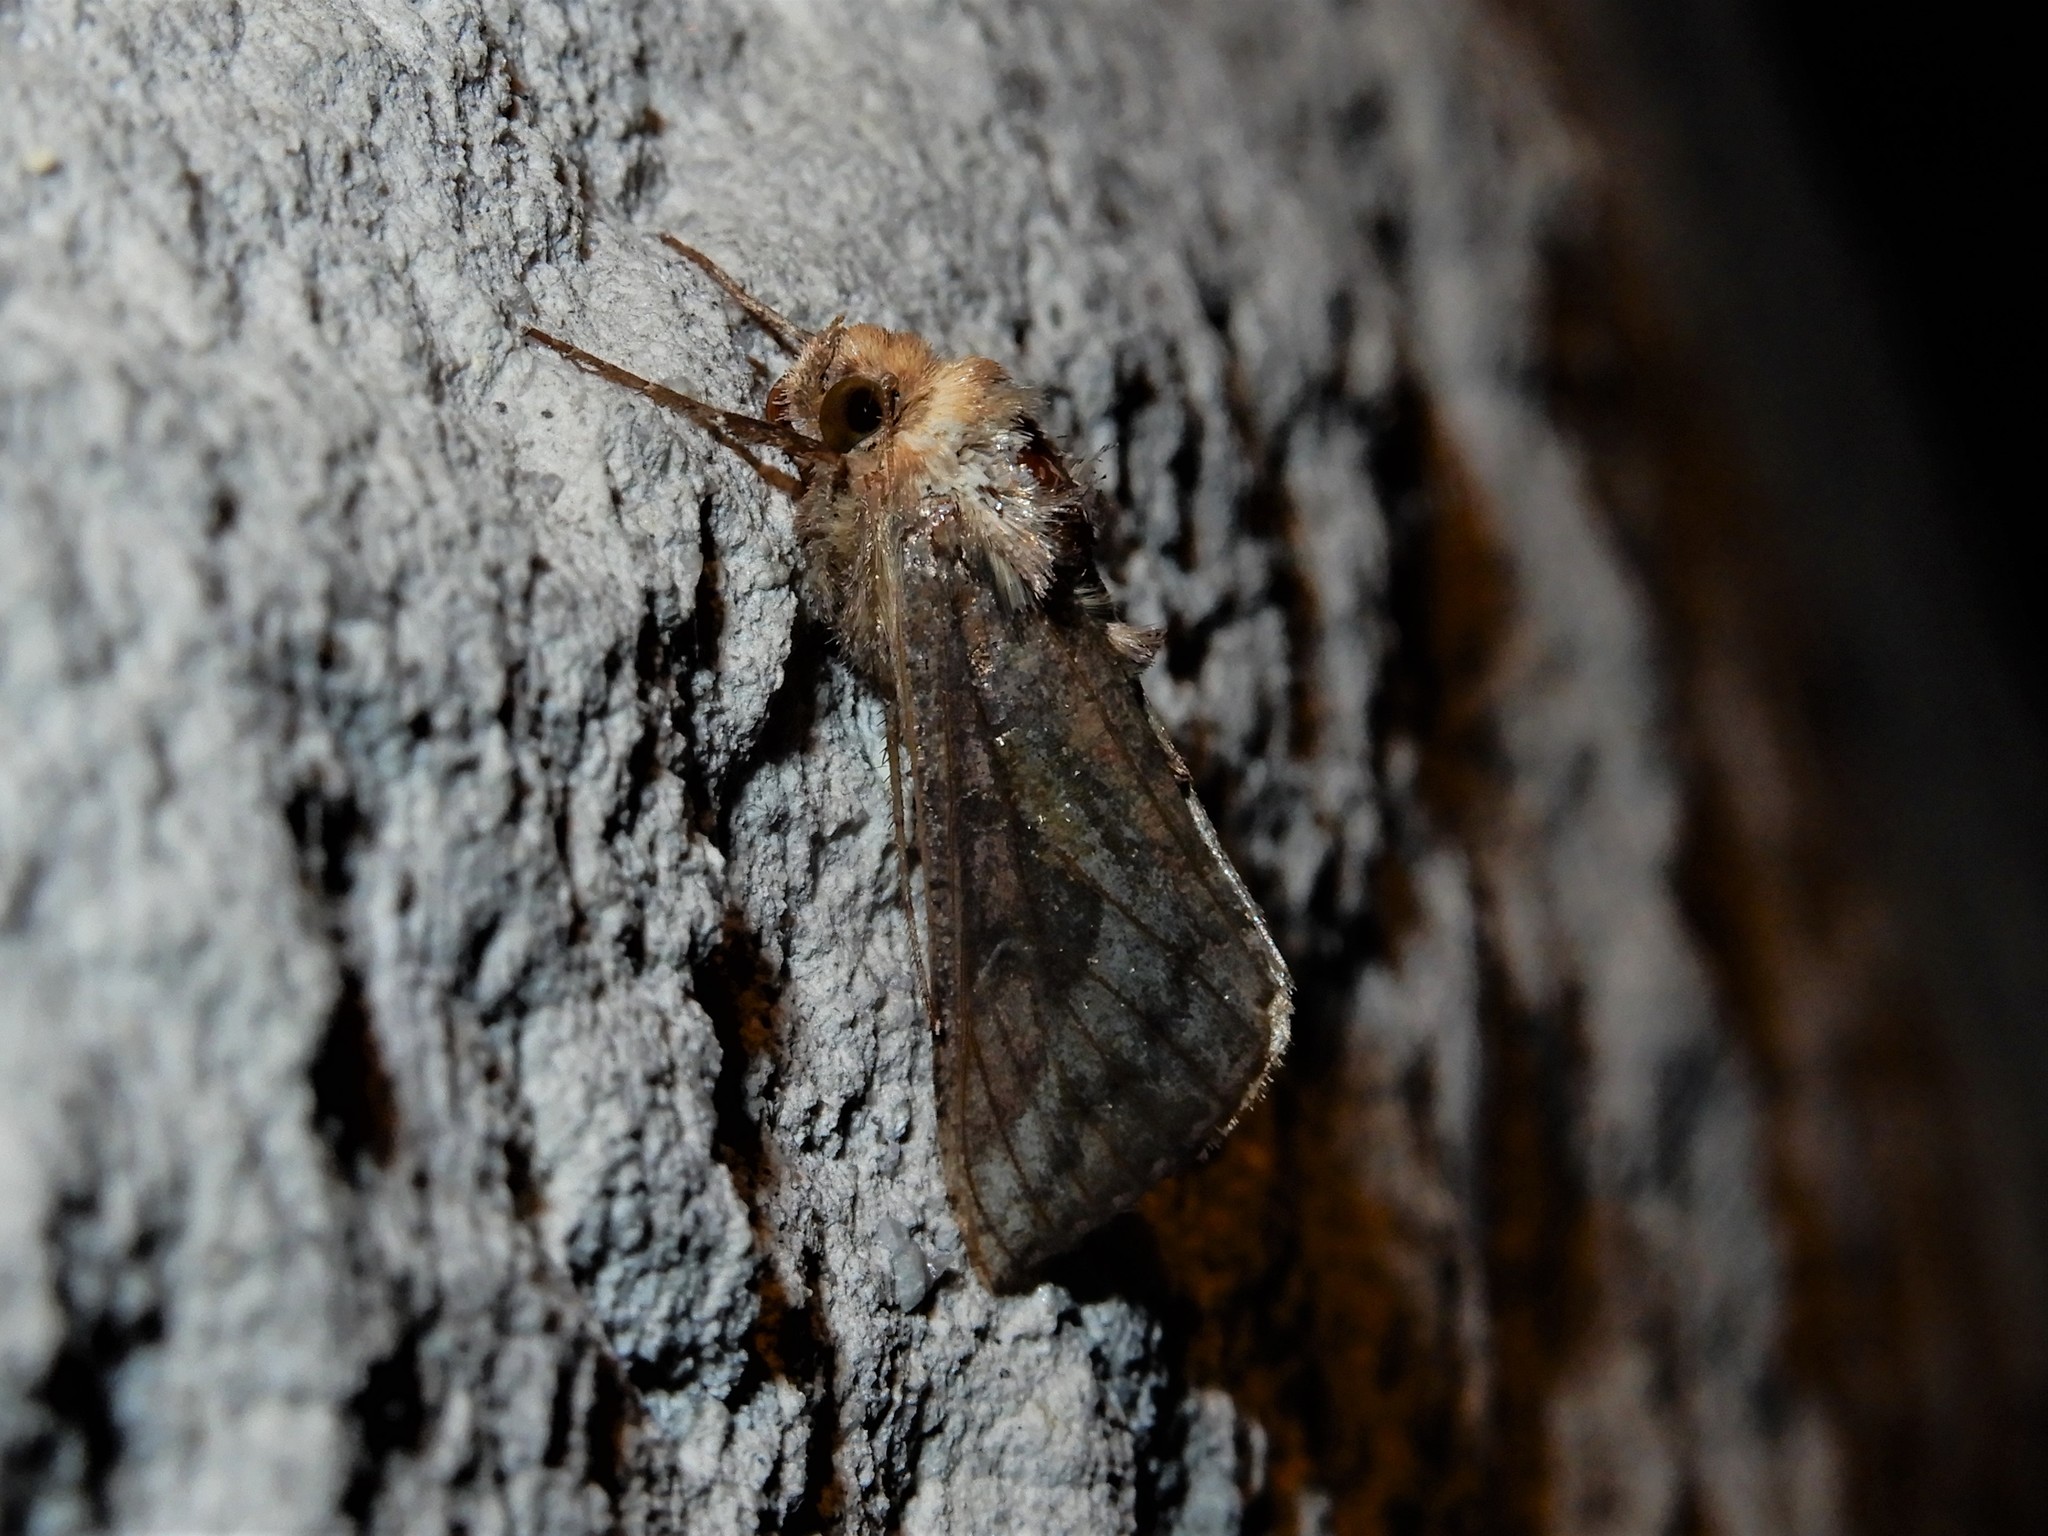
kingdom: Animalia
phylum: Arthropoda
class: Insecta
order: Lepidoptera
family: Noctuidae
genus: Thysanoplusia
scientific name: Thysanoplusia orichalcea
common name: Slender burnished brass, golden plusia
